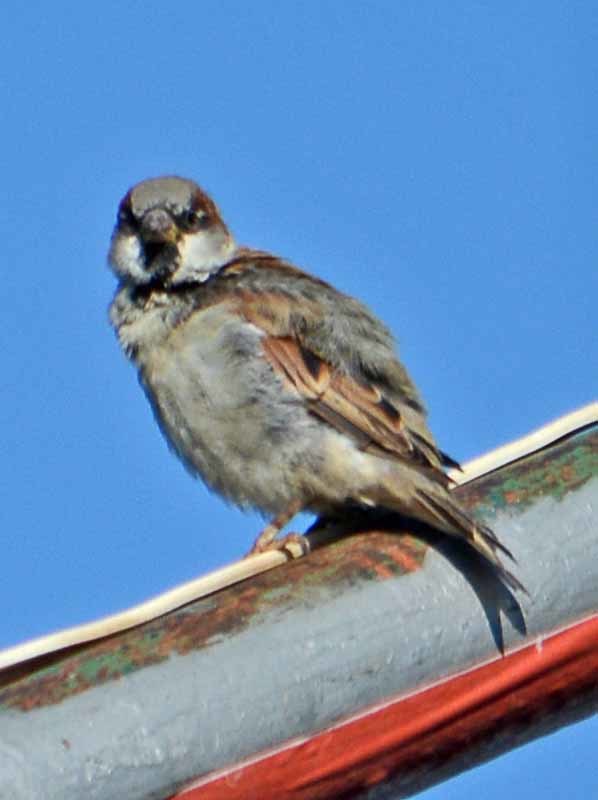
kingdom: Animalia
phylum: Chordata
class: Aves
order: Passeriformes
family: Passeridae
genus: Passer
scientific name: Passer domesticus
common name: House sparrow
